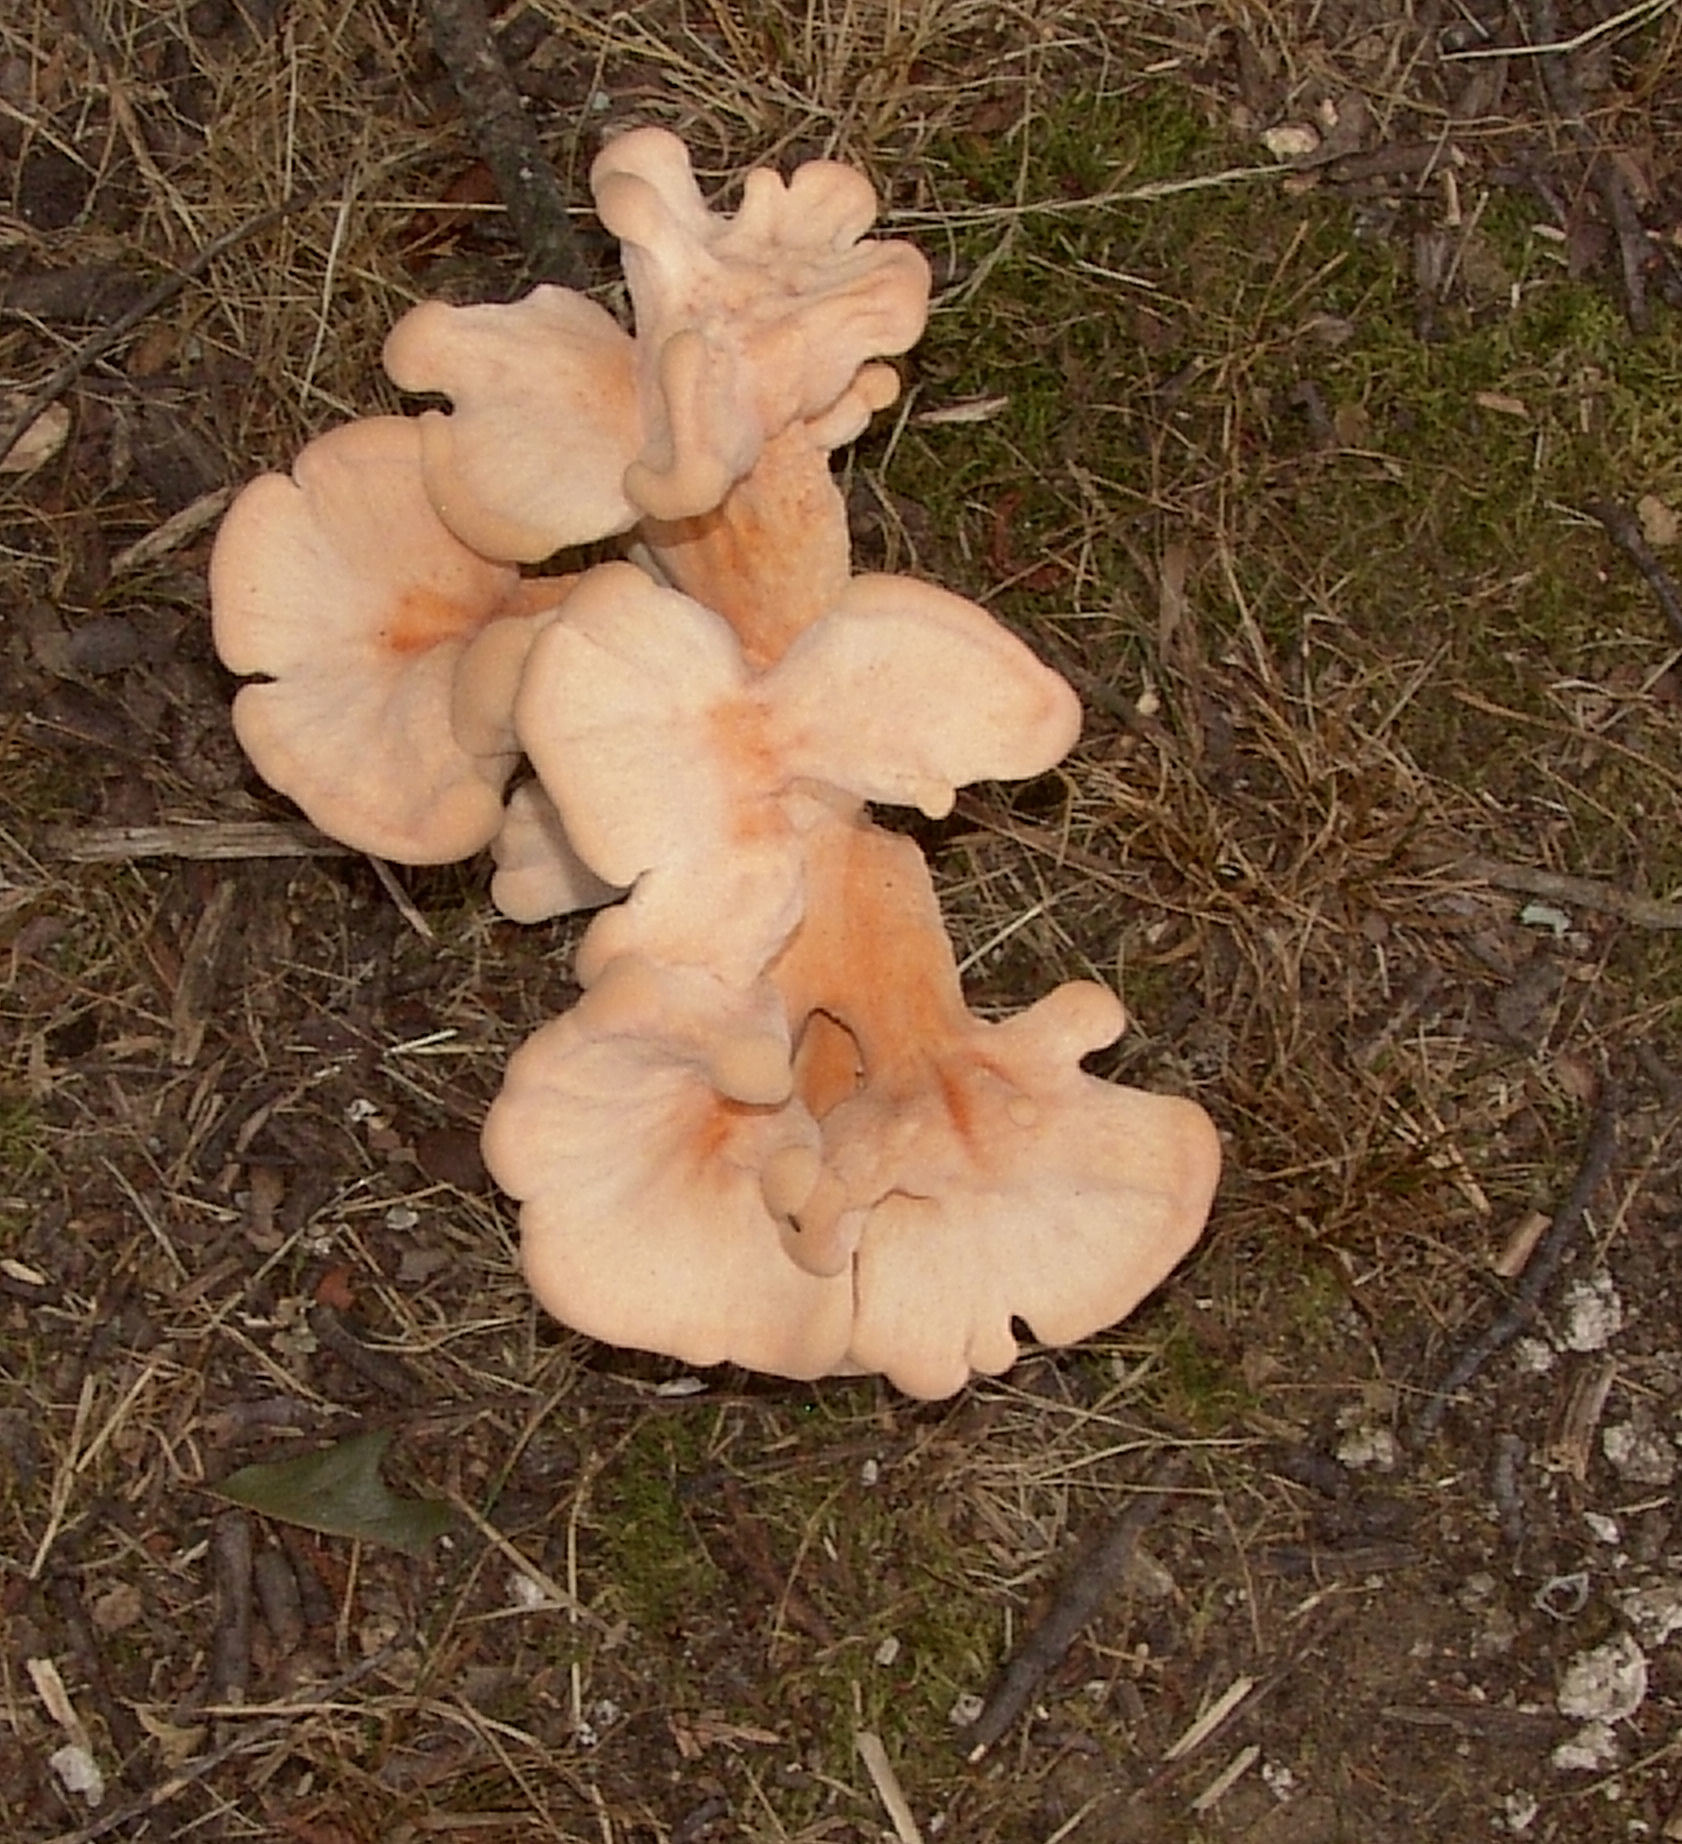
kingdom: Fungi
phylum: Basidiomycota
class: Agaricomycetes
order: Polyporales
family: Laetiporaceae
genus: Laetiporus
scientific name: Laetiporus sulphureus
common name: Chicken of the woods
